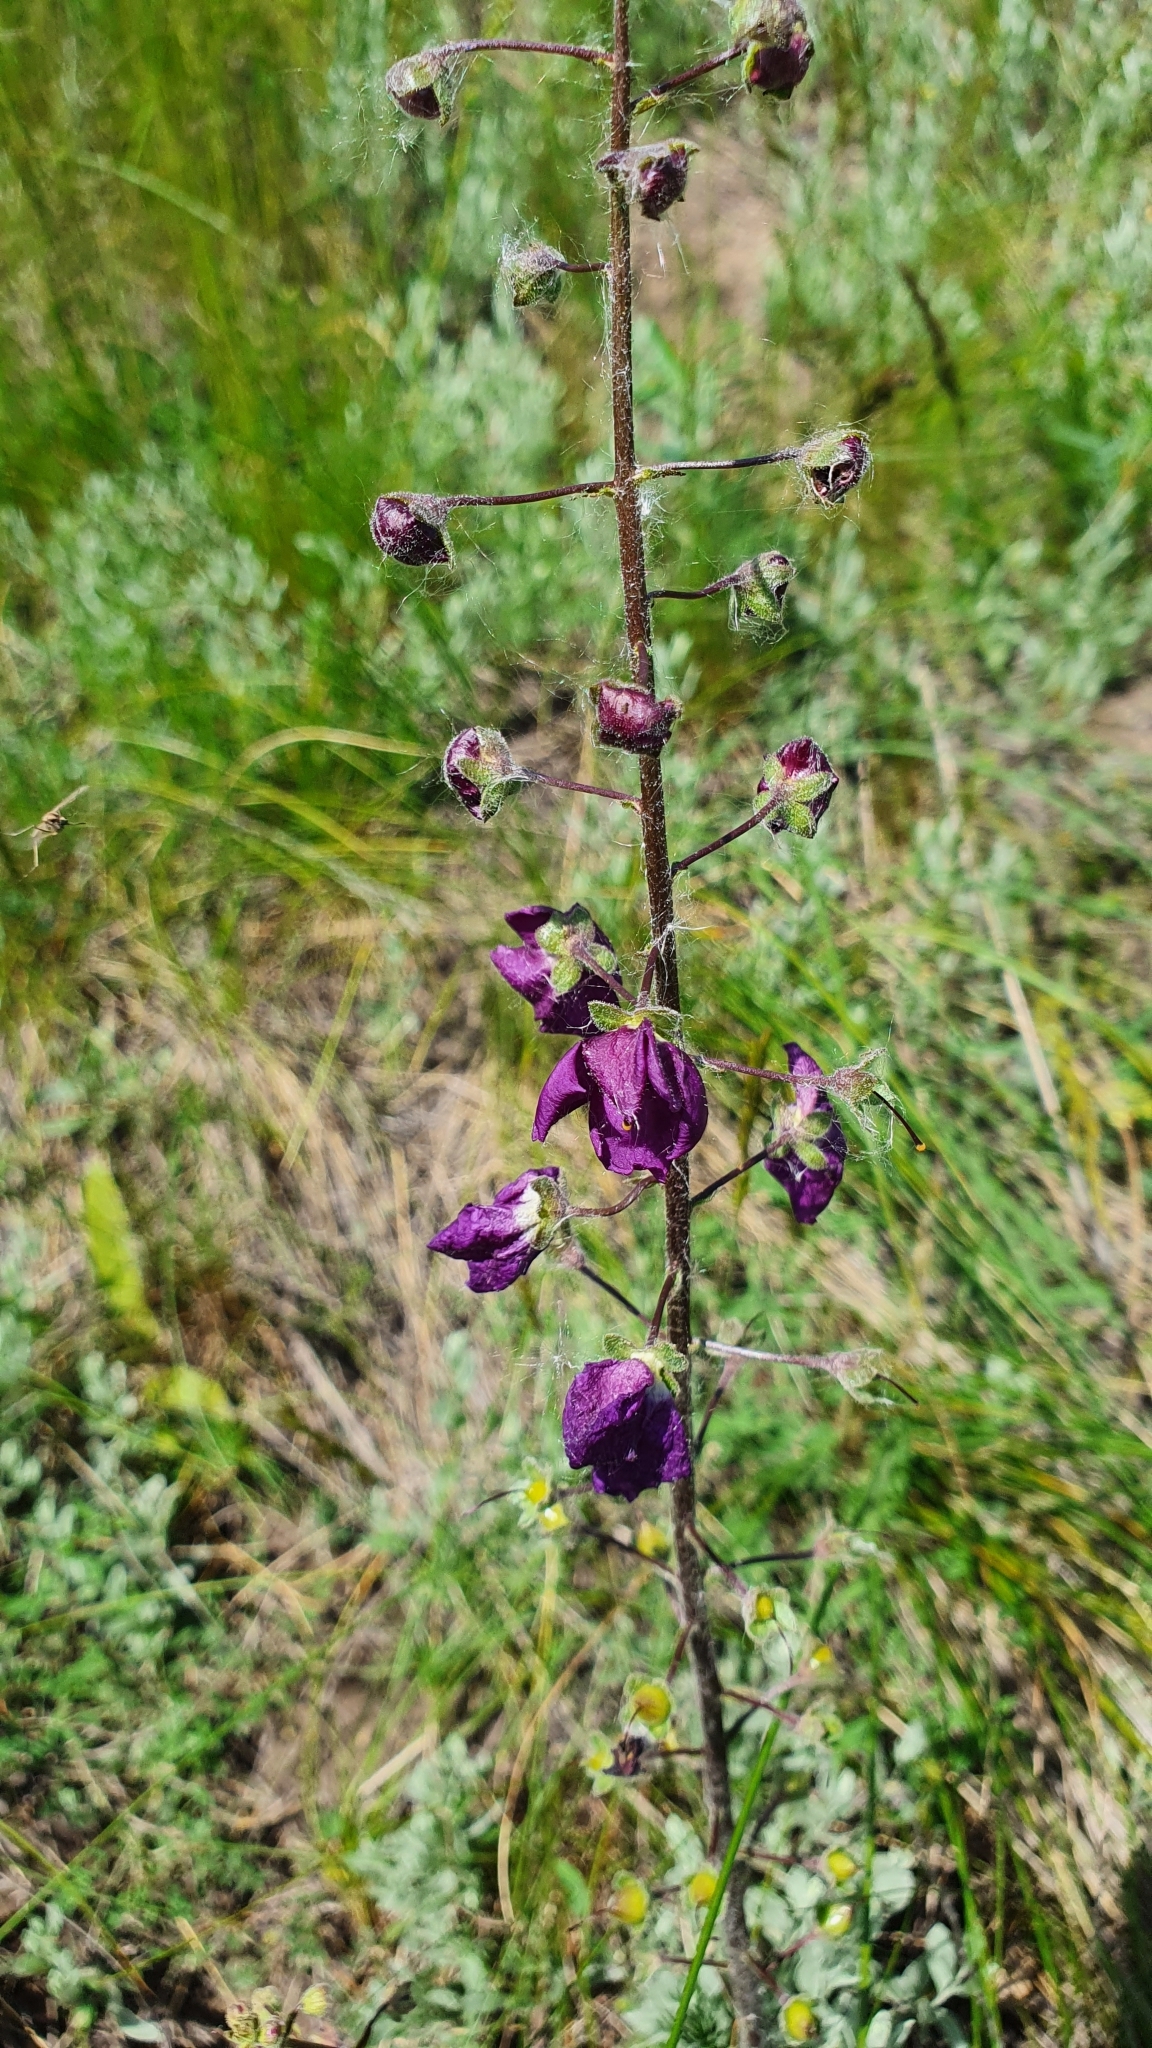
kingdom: Plantae
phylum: Tracheophyta
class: Magnoliopsida
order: Lamiales
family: Scrophulariaceae
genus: Verbascum
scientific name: Verbascum phoeniceum
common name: Purple mullein
